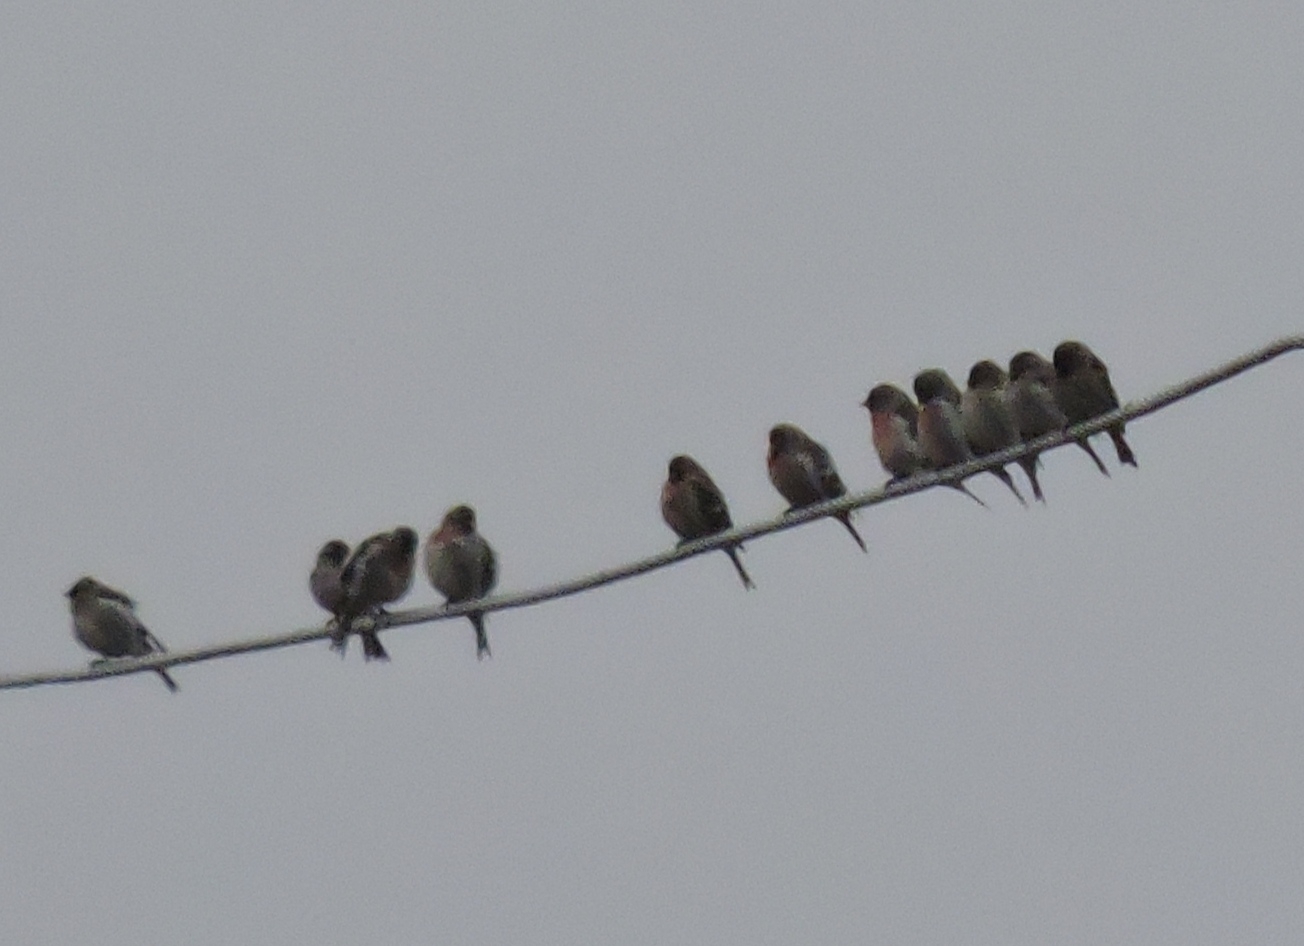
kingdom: Animalia
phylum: Chordata
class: Aves
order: Passeriformes
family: Fringillidae
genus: Acanthis
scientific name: Acanthis flammea
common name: Common redpoll
